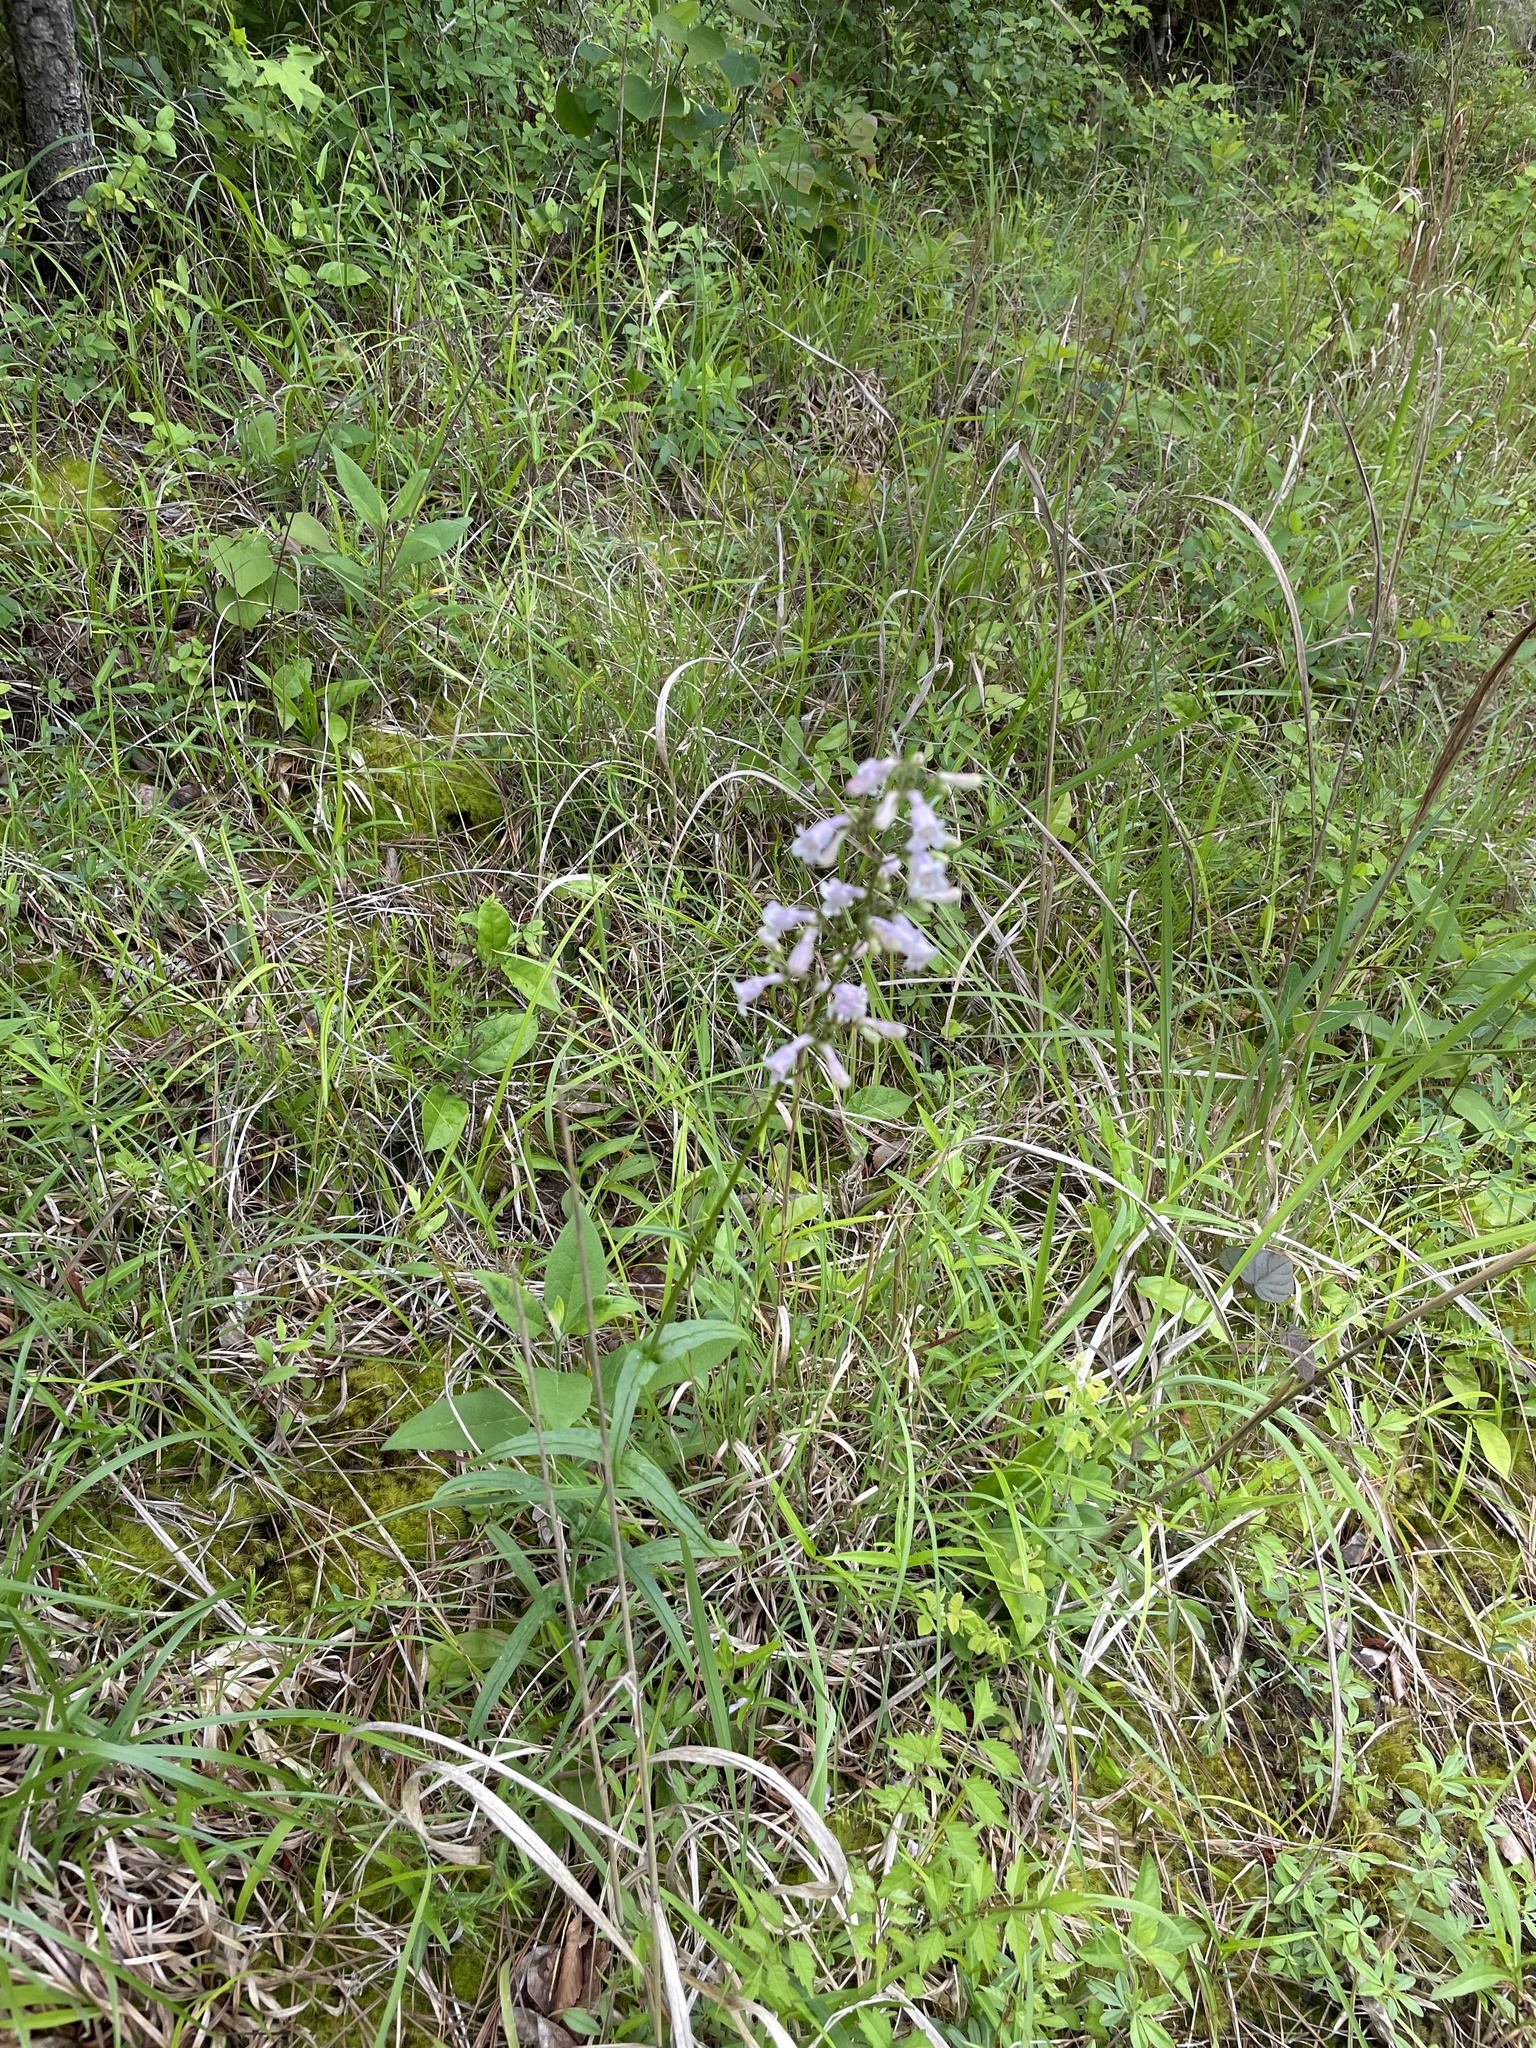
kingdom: Plantae
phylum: Tracheophyta
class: Magnoliopsida
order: Lamiales
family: Plantaginaceae
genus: Penstemon
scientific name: Penstemon laevigatus
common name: Eastern beardtongue
